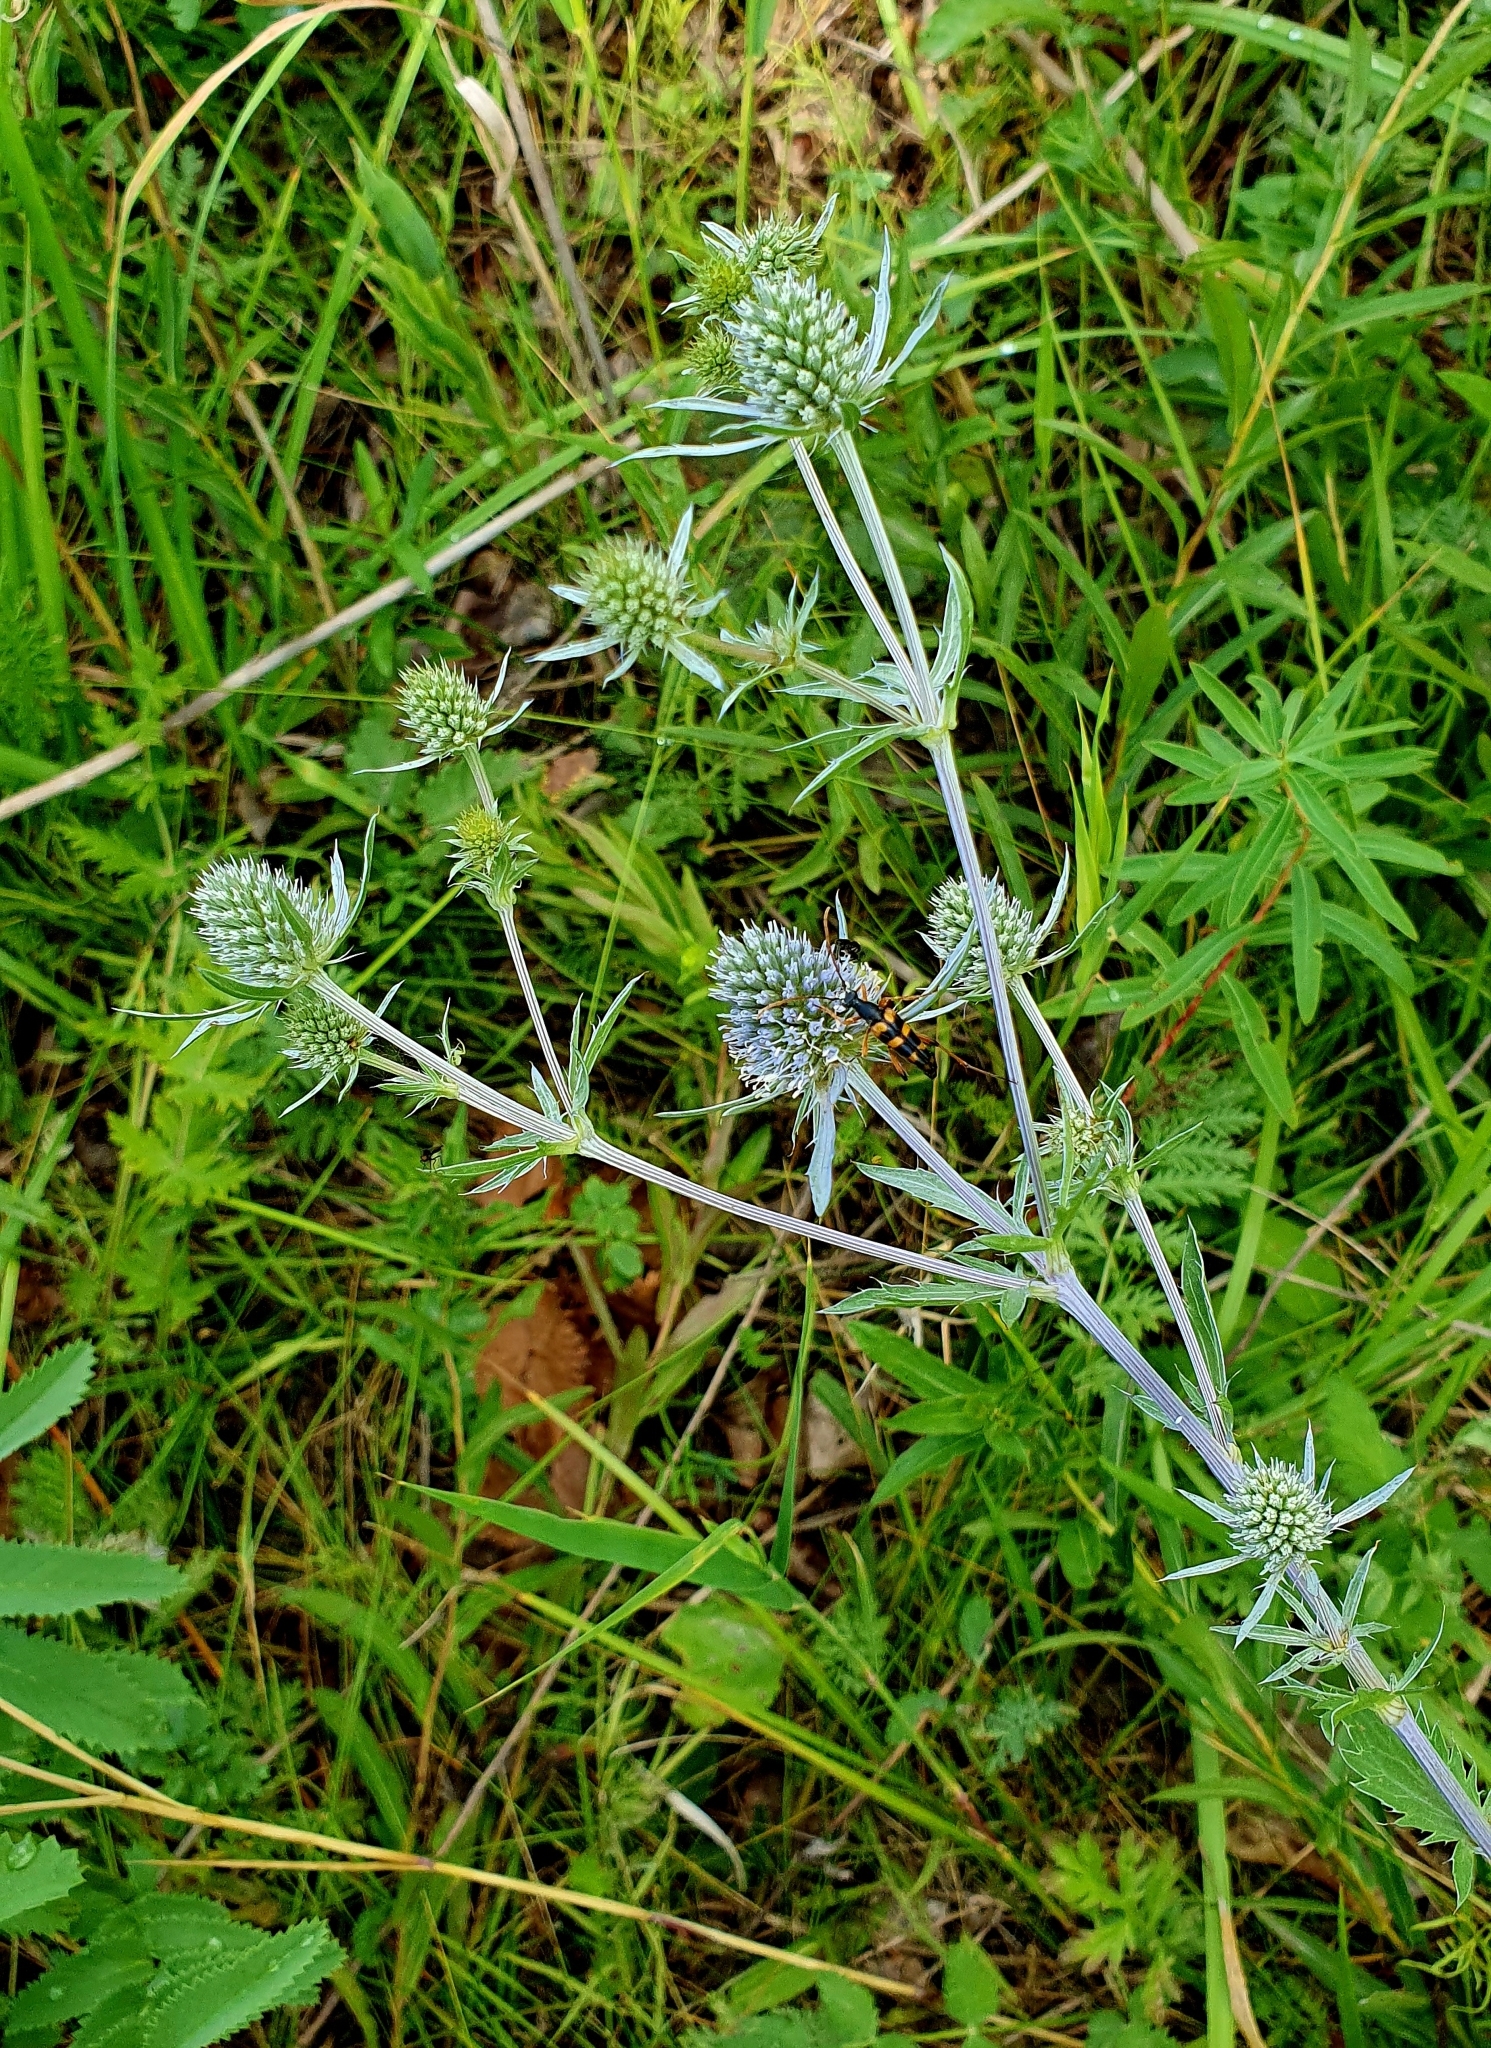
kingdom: Plantae
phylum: Tracheophyta
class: Magnoliopsida
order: Apiales
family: Apiaceae
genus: Eryngium
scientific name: Eryngium planum
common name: Blue eryngo
